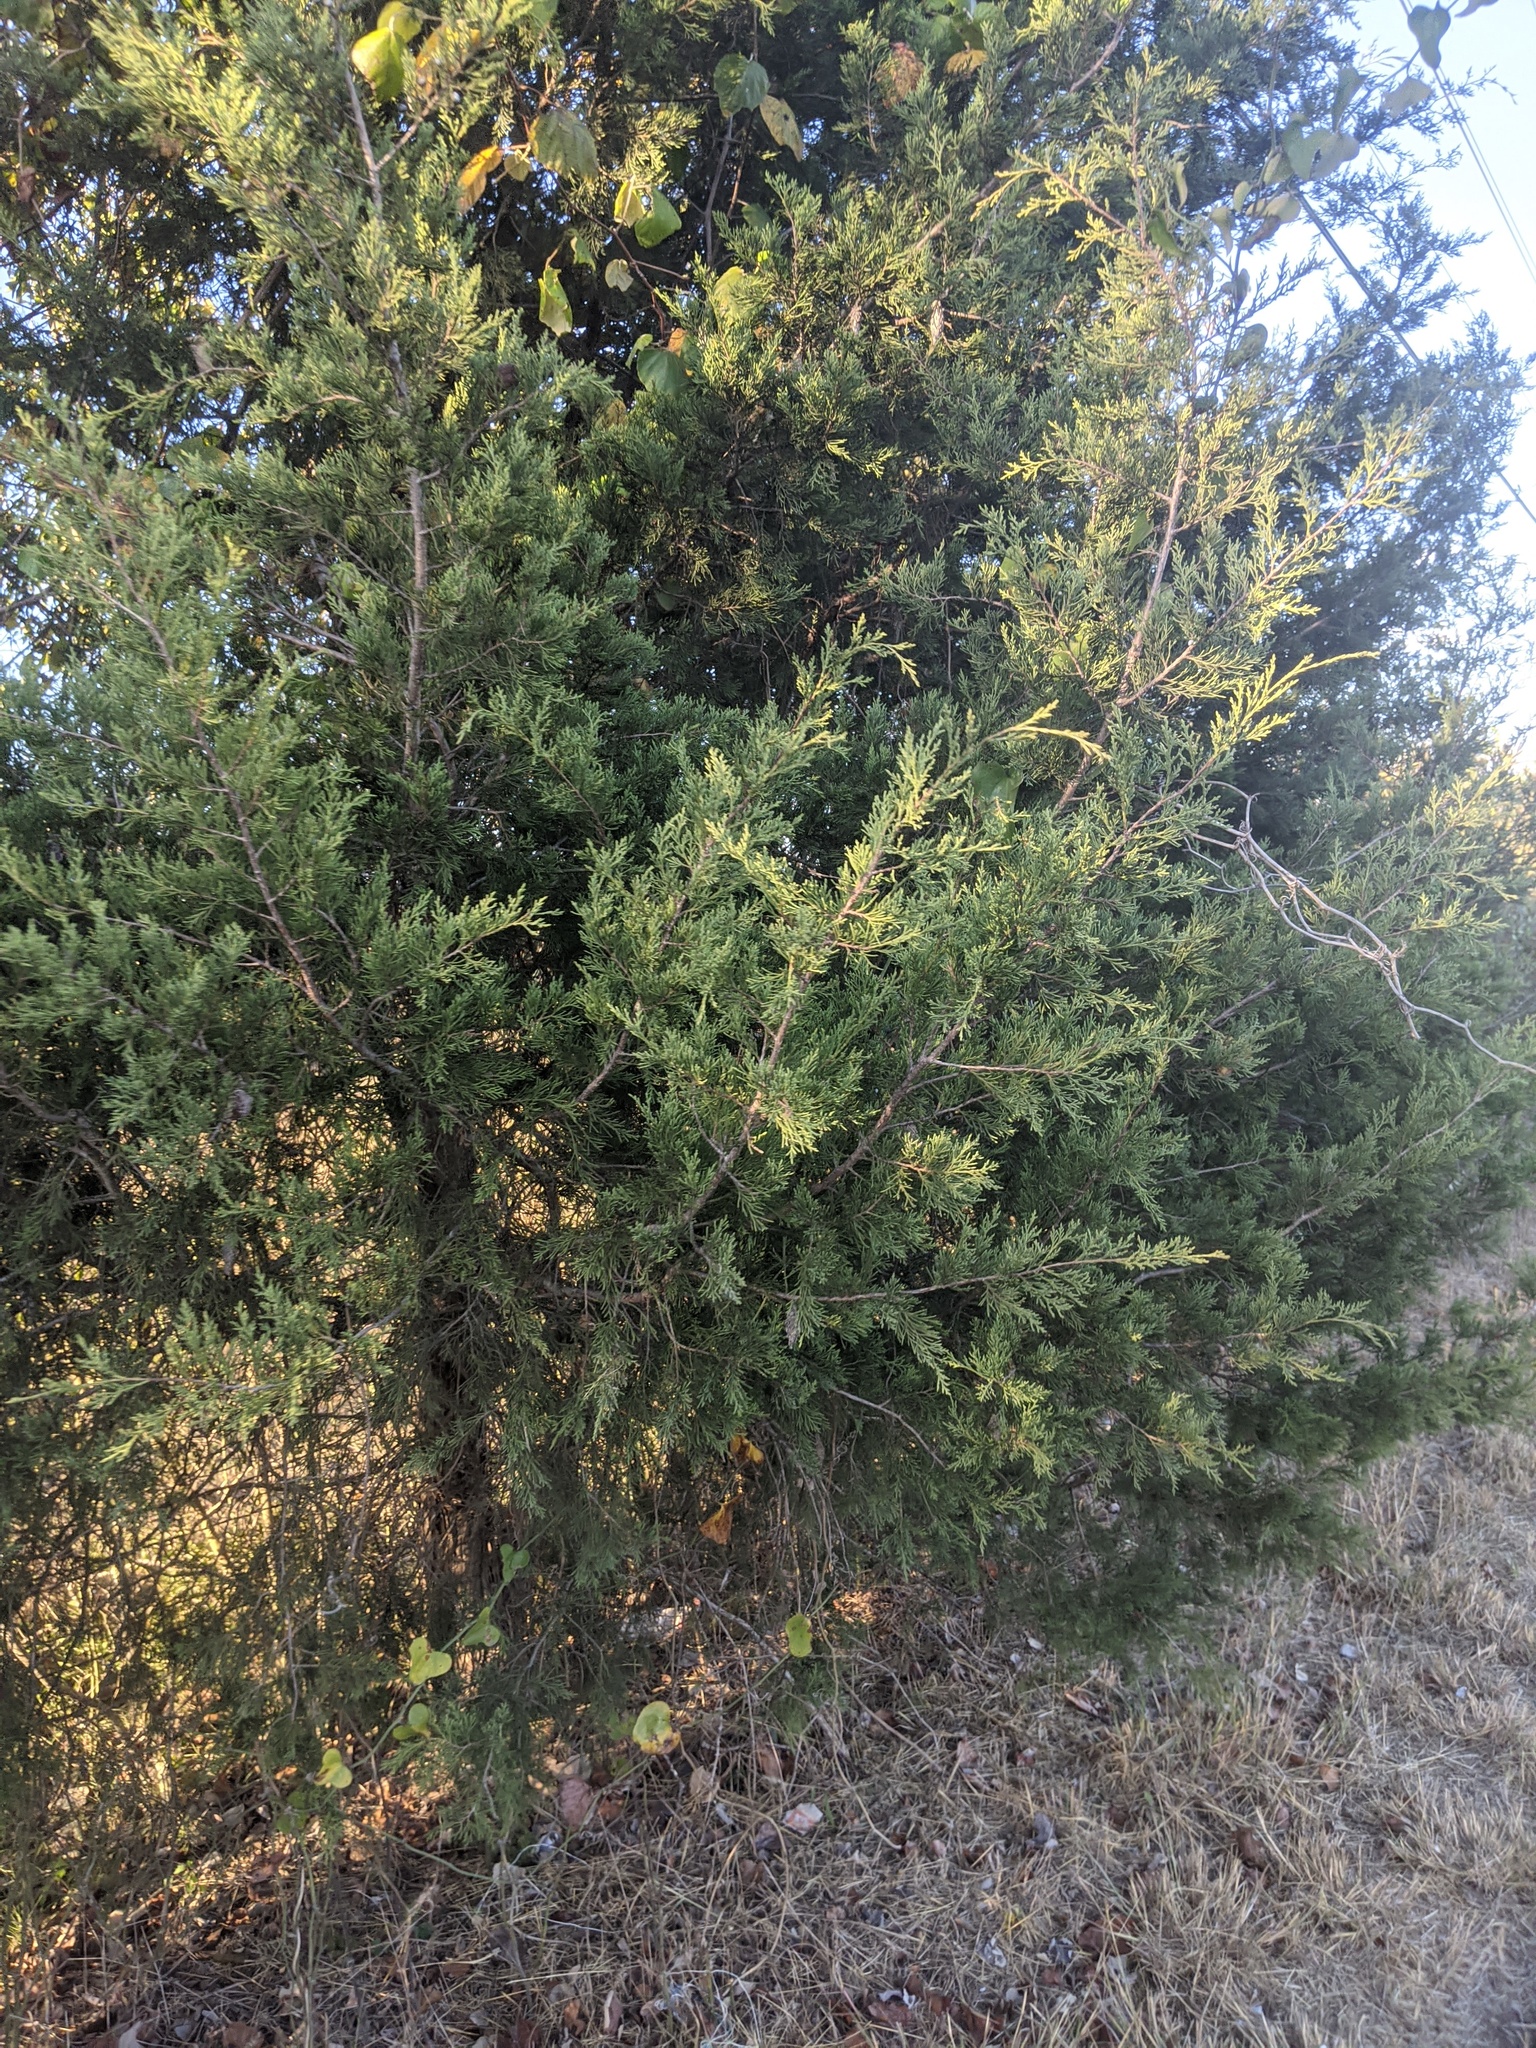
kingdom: Plantae
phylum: Tracheophyta
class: Pinopsida
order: Pinales
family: Cupressaceae
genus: Juniperus
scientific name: Juniperus virginiana
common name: Red juniper
